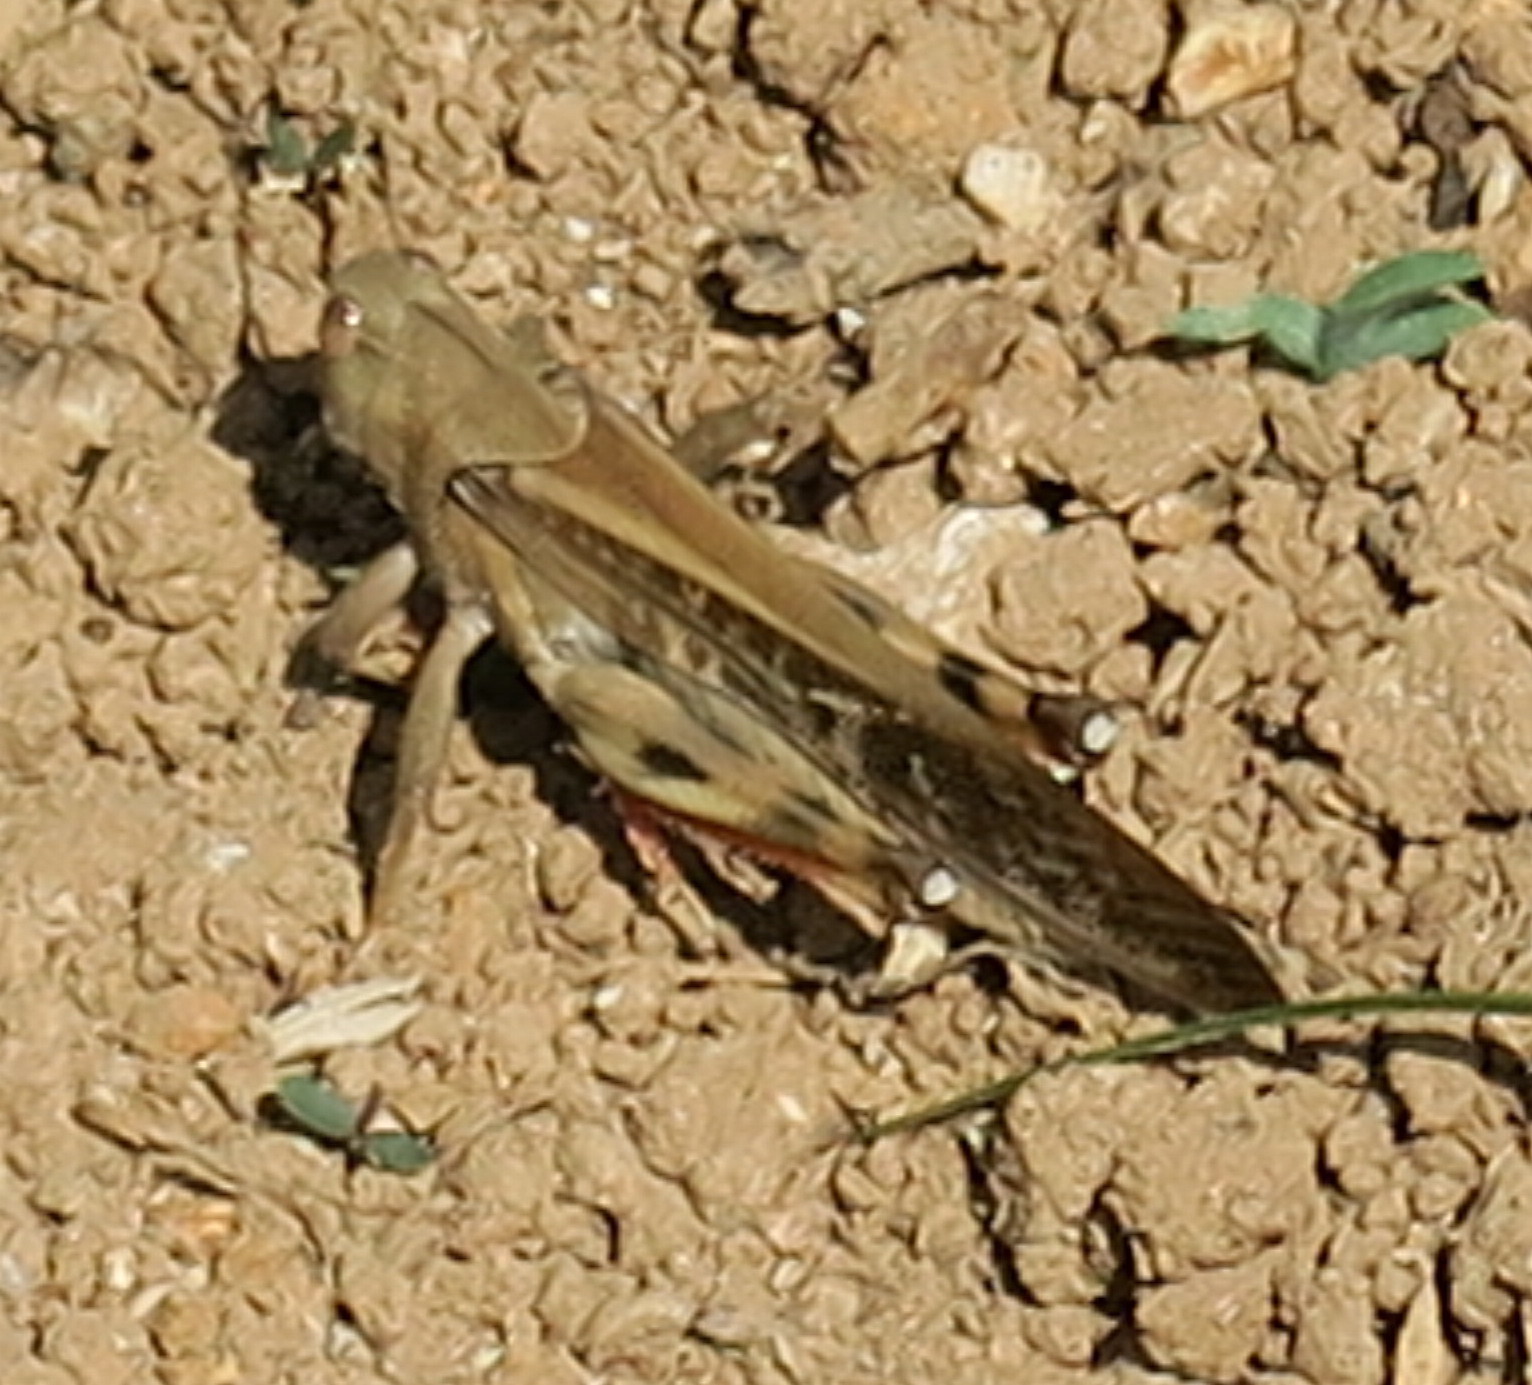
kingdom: Animalia
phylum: Arthropoda
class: Insecta
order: Orthoptera
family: Acrididae
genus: Locusta
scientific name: Locusta migratoria
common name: Migratory locust
